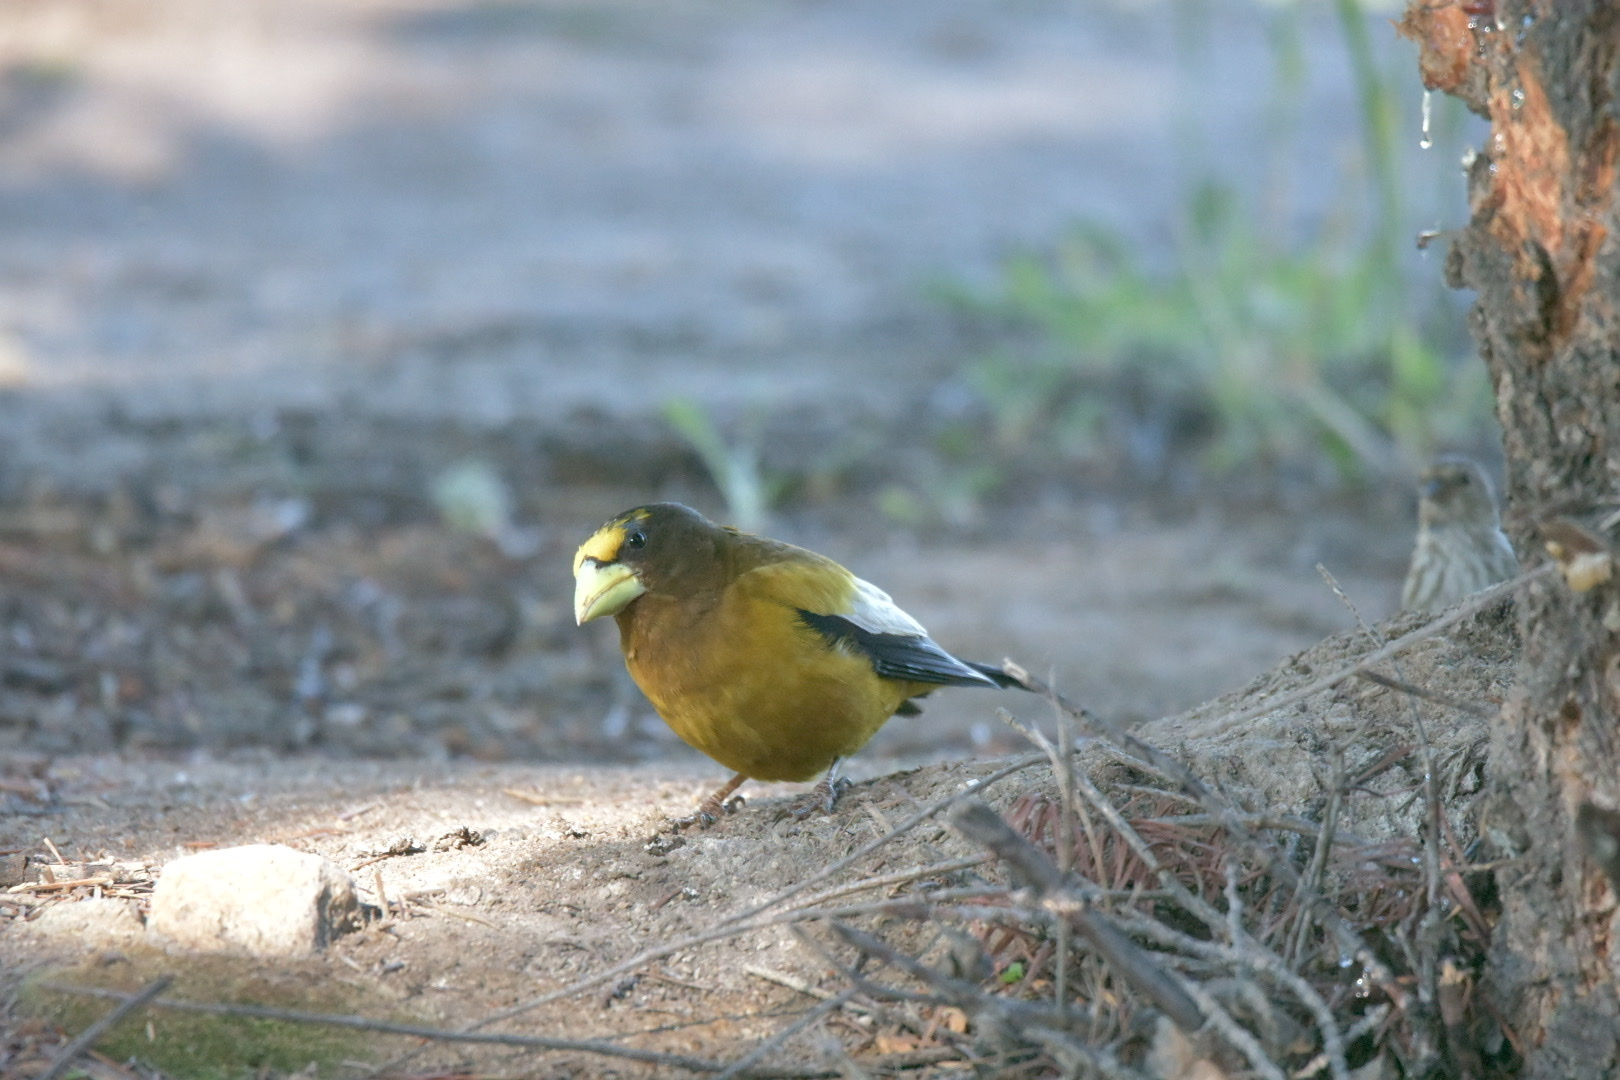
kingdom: Animalia
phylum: Chordata
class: Aves
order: Passeriformes
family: Fringillidae
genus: Hesperiphona
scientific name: Hesperiphona vespertina
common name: Evening grosbeak
